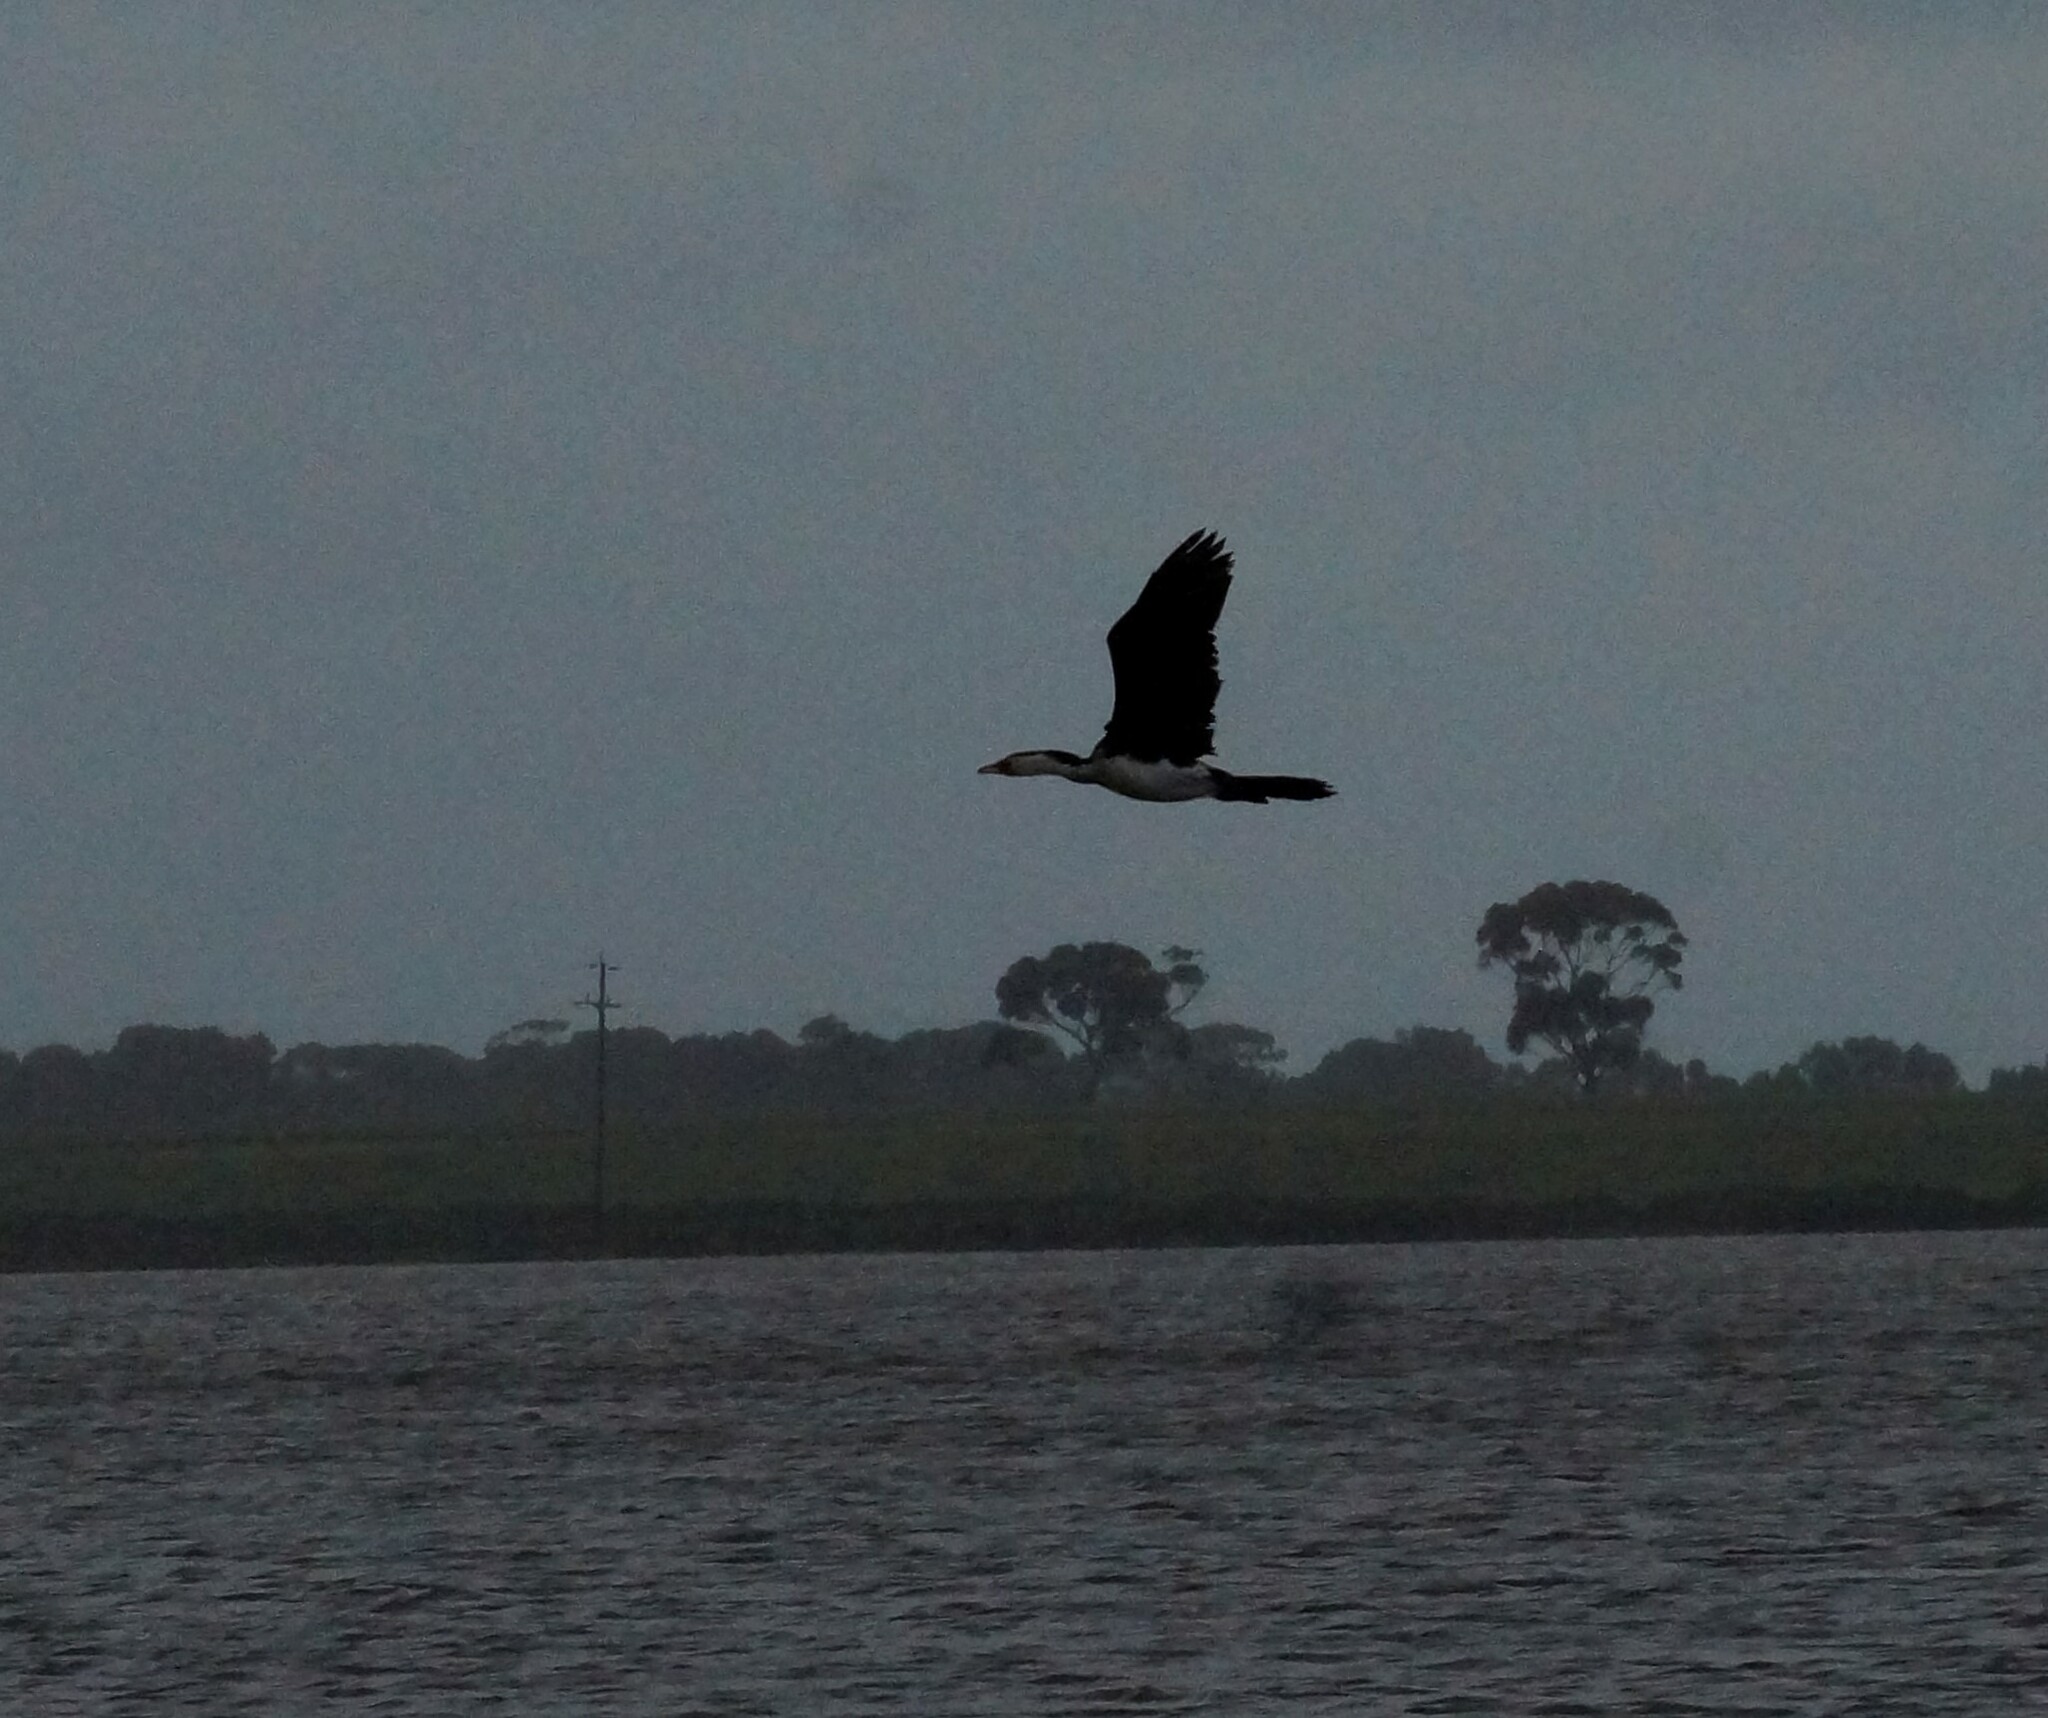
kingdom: Animalia
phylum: Chordata
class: Aves
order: Suliformes
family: Phalacrocoracidae
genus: Microcarbo
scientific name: Microcarbo melanoleucos
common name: Little pied cormorant
